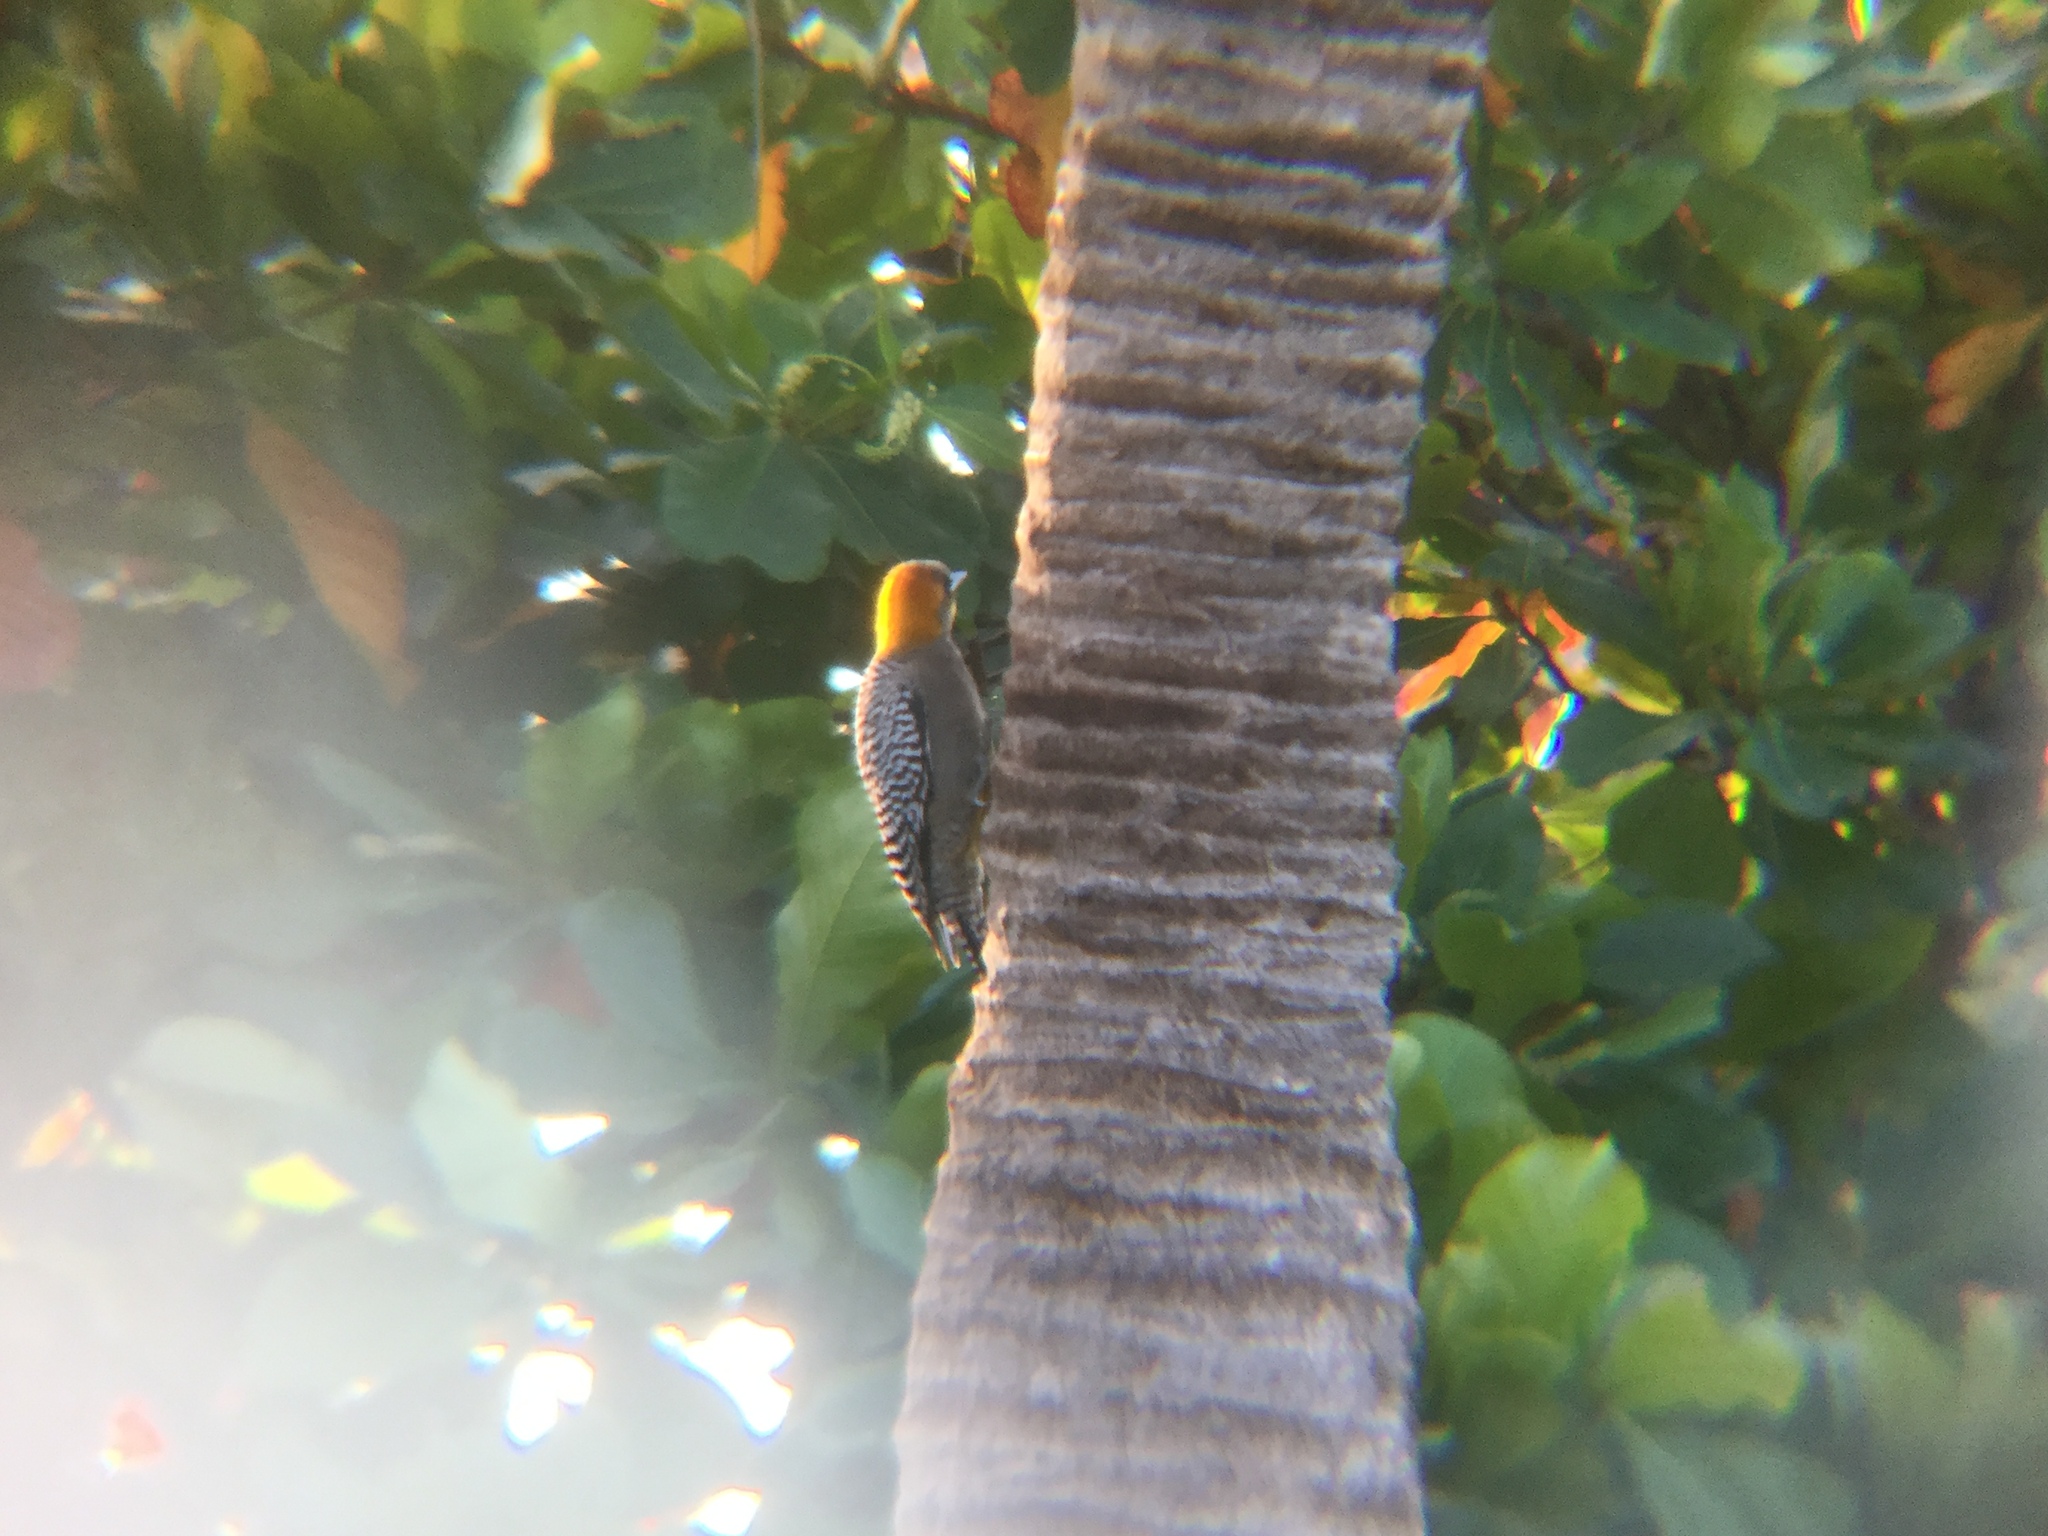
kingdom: Animalia
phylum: Chordata
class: Aves
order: Piciformes
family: Picidae
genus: Melanerpes
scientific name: Melanerpes chrysogenys
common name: Golden-cheeked woodpecker
